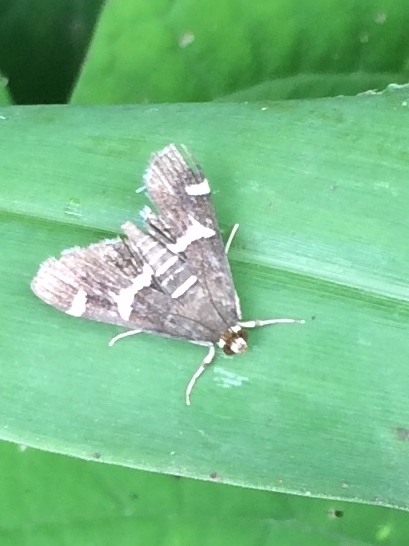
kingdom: Animalia
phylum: Arthropoda
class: Insecta
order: Lepidoptera
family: Crambidae
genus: Spoladea
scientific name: Spoladea recurvalis
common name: Beet webworm moth
